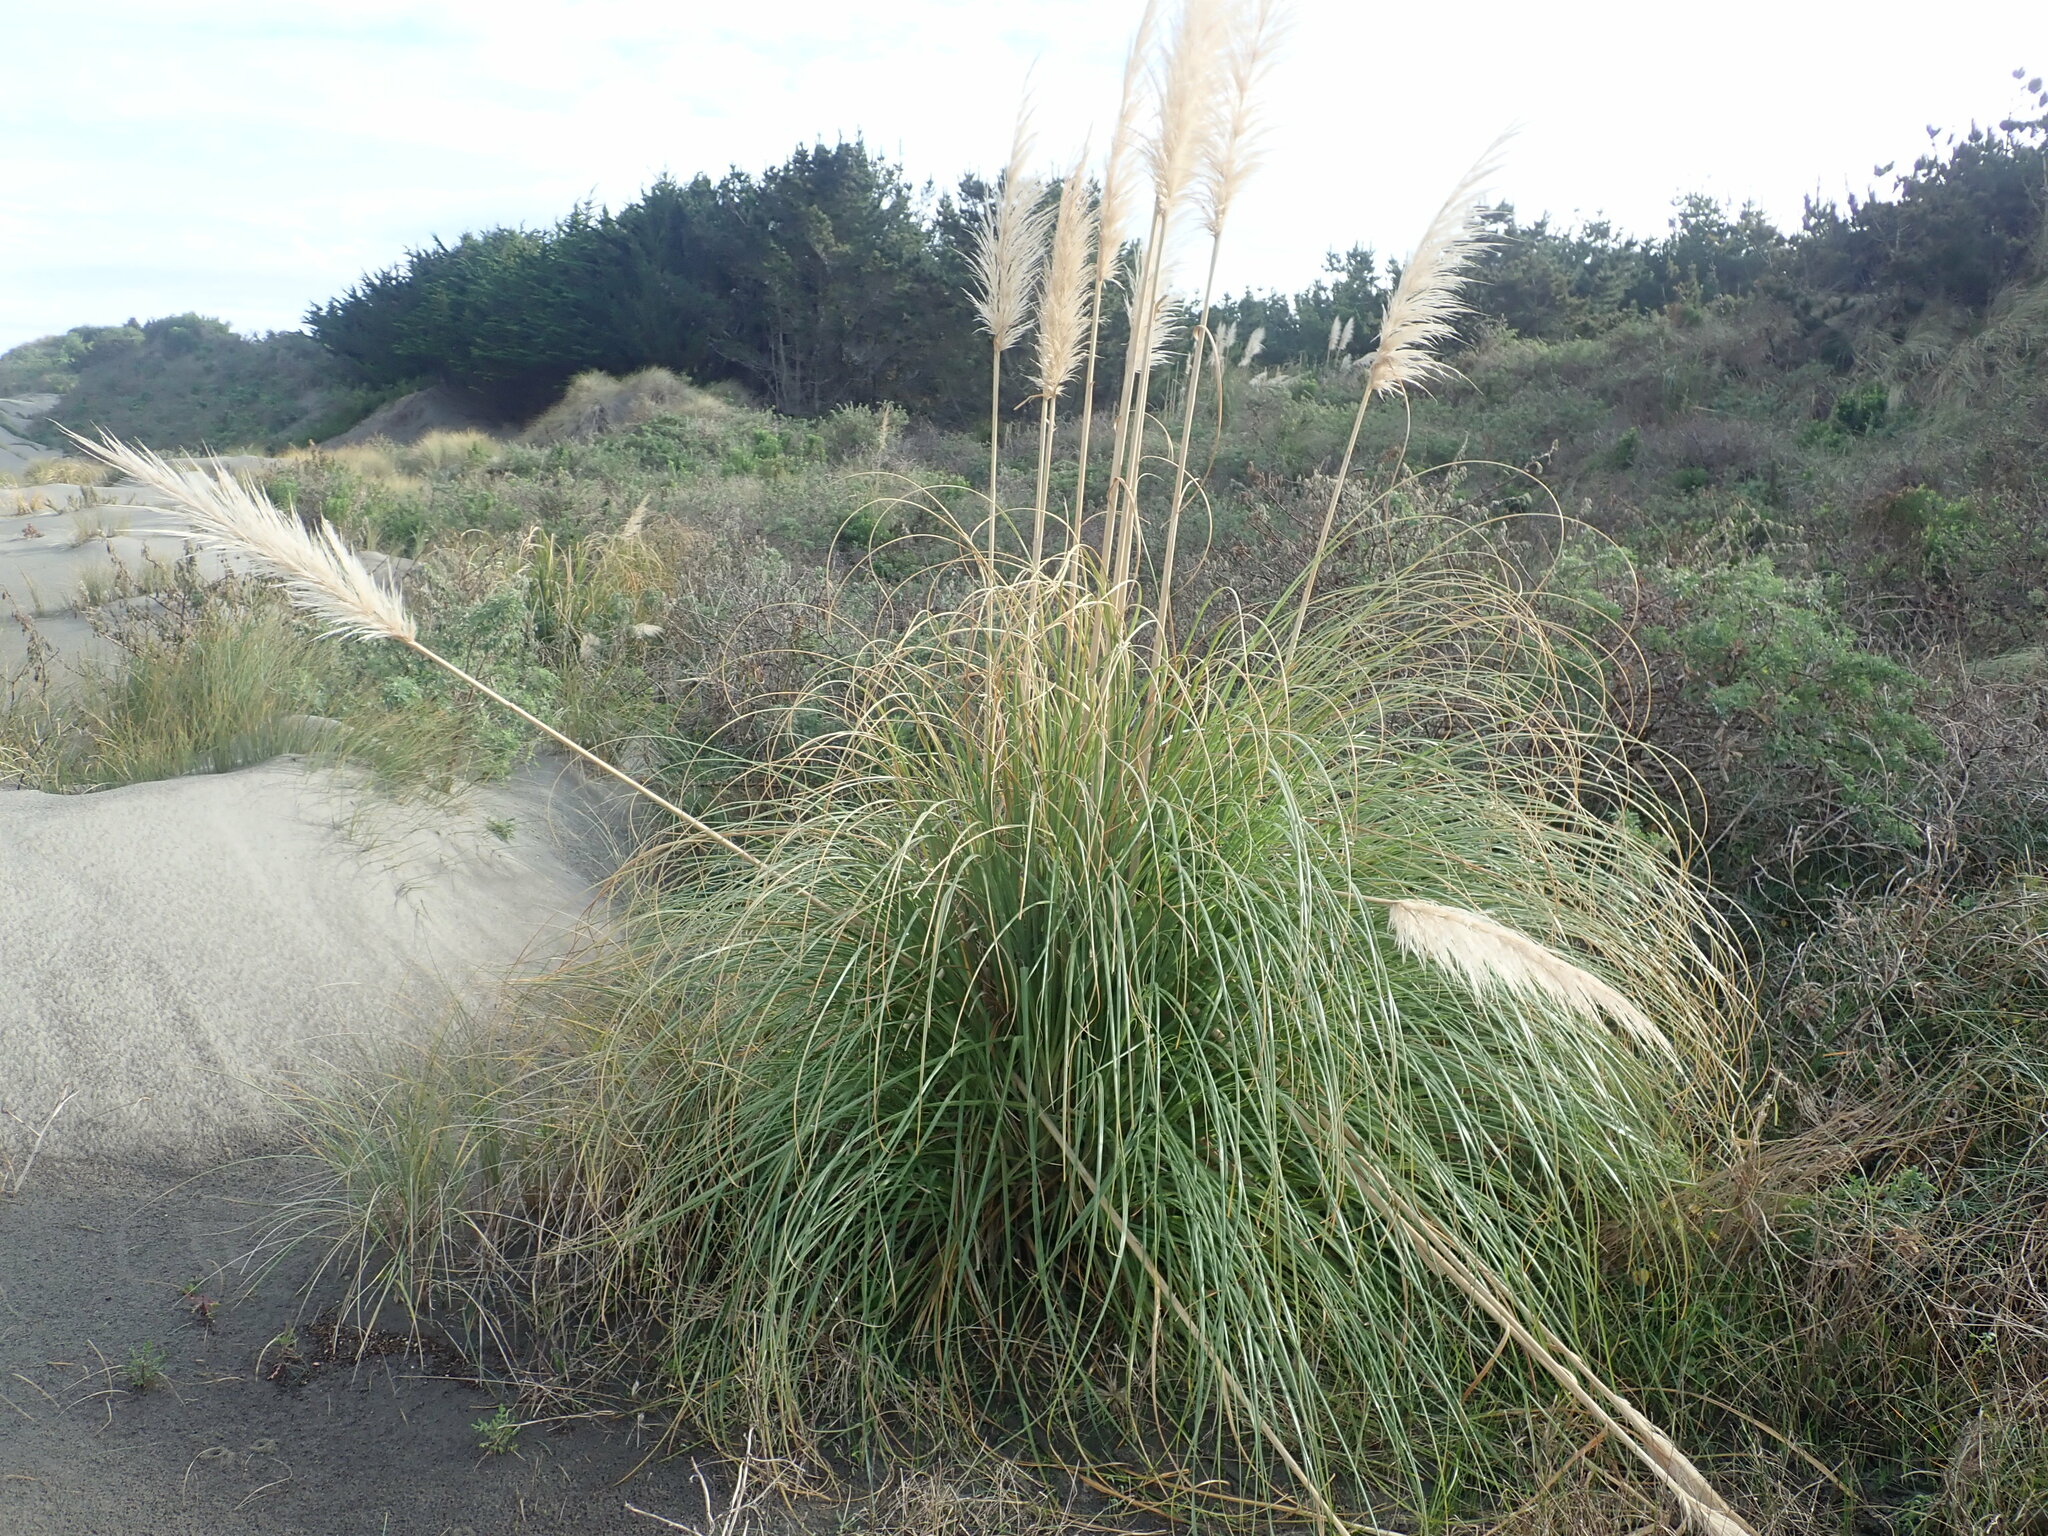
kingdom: Plantae
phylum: Tracheophyta
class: Liliopsida
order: Poales
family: Poaceae
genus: Cortaderia
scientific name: Cortaderia selloana
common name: Uruguayan pampas grass
